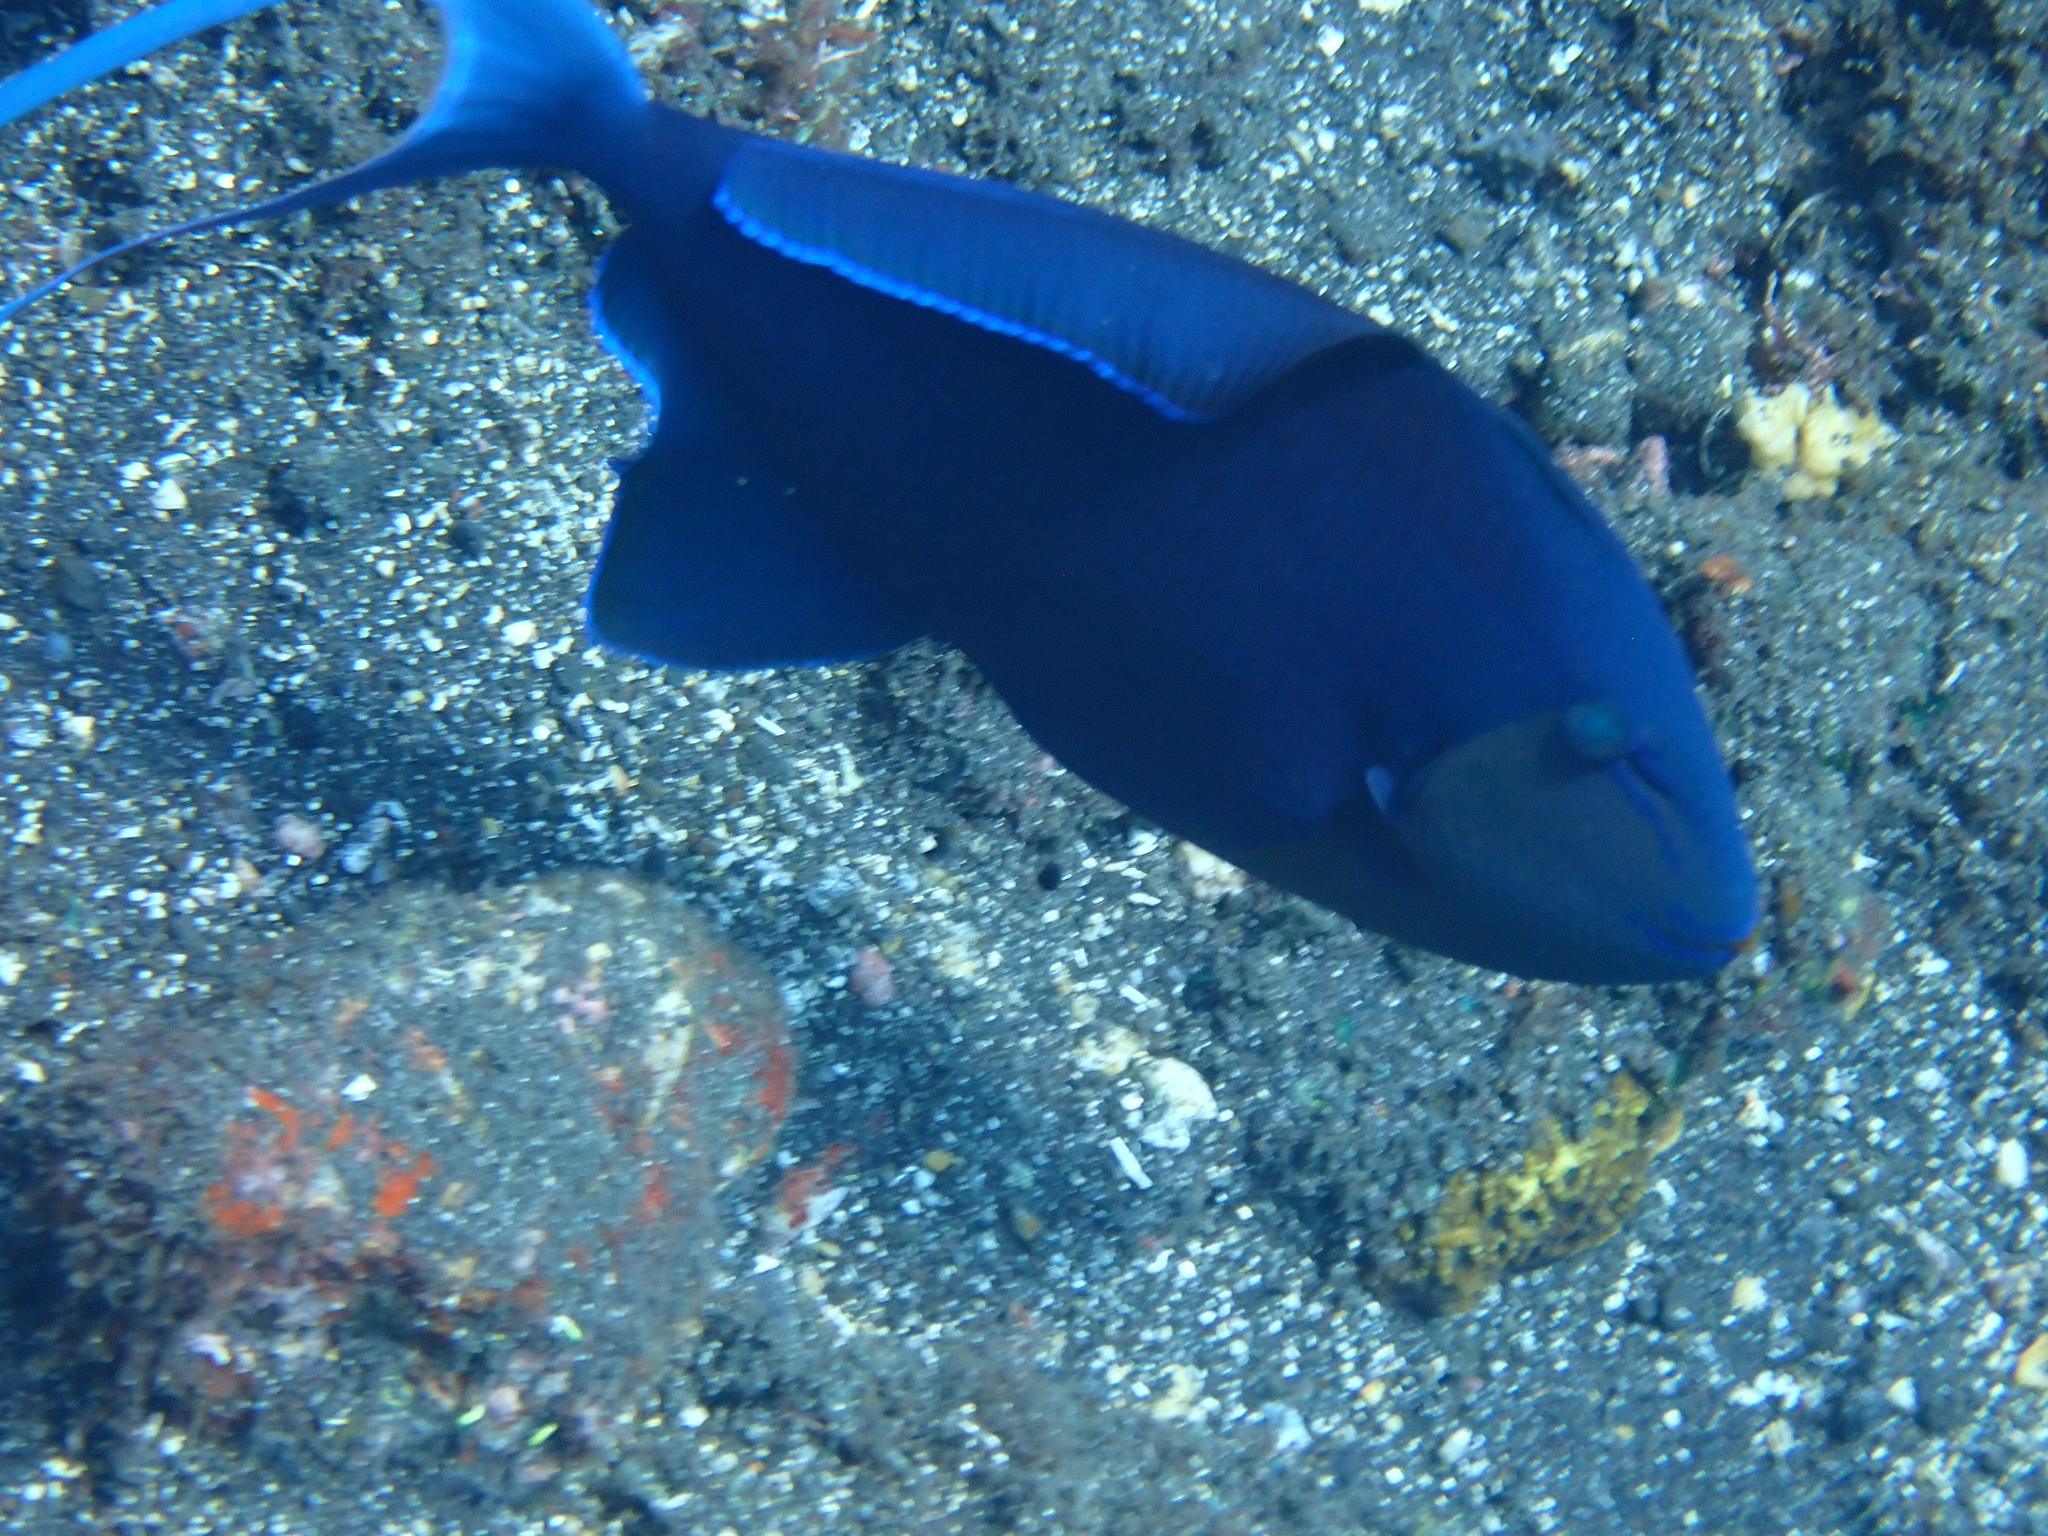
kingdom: Animalia
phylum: Chordata
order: Tetraodontiformes
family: Balistidae
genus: Odonus
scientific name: Odonus niger
